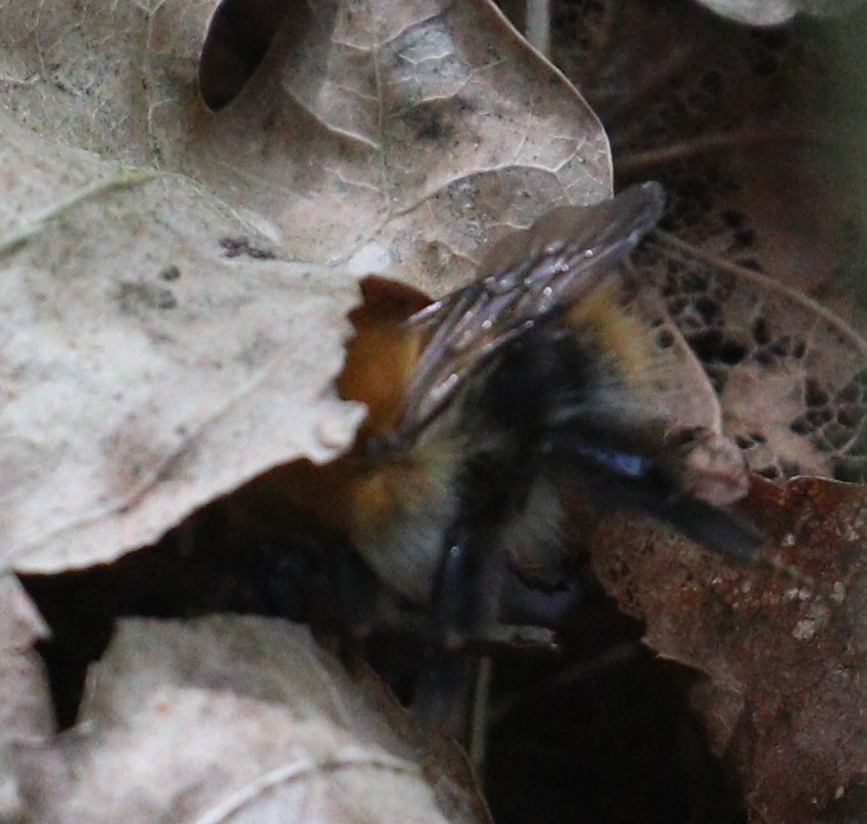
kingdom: Animalia
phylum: Arthropoda
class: Insecta
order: Hymenoptera
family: Apidae
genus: Bombus
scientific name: Bombus pascuorum
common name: Common carder bee
